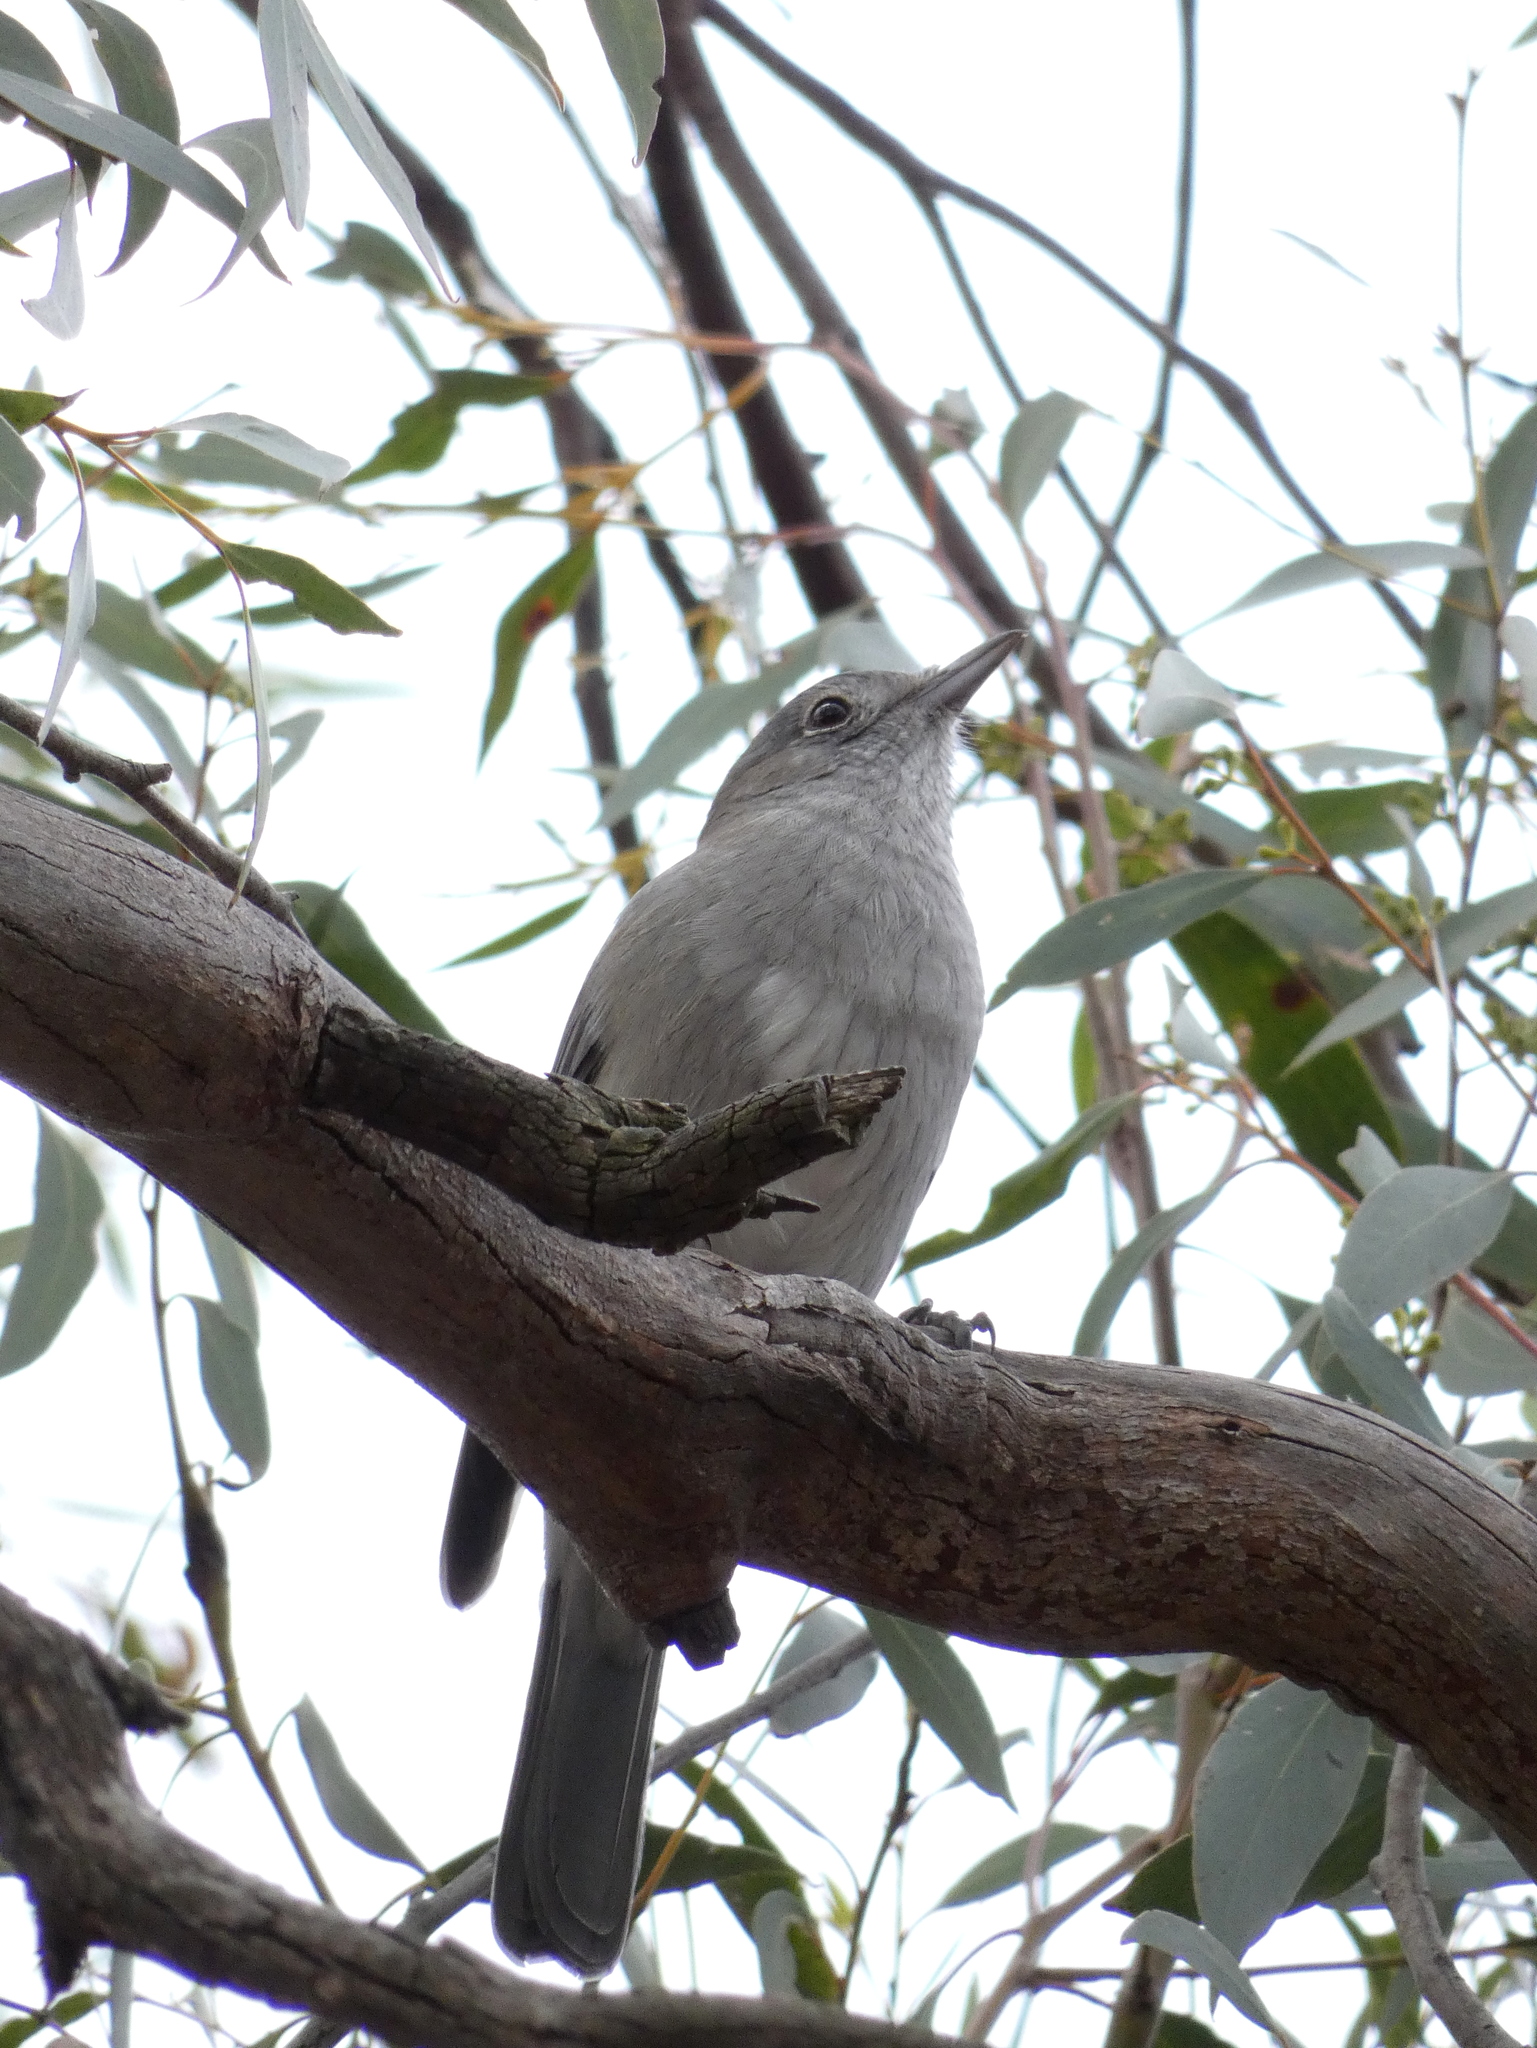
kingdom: Animalia
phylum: Chordata
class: Aves
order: Passeriformes
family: Pachycephalidae
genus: Colluricincla
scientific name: Colluricincla harmonica
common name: Grey shrikethrush
